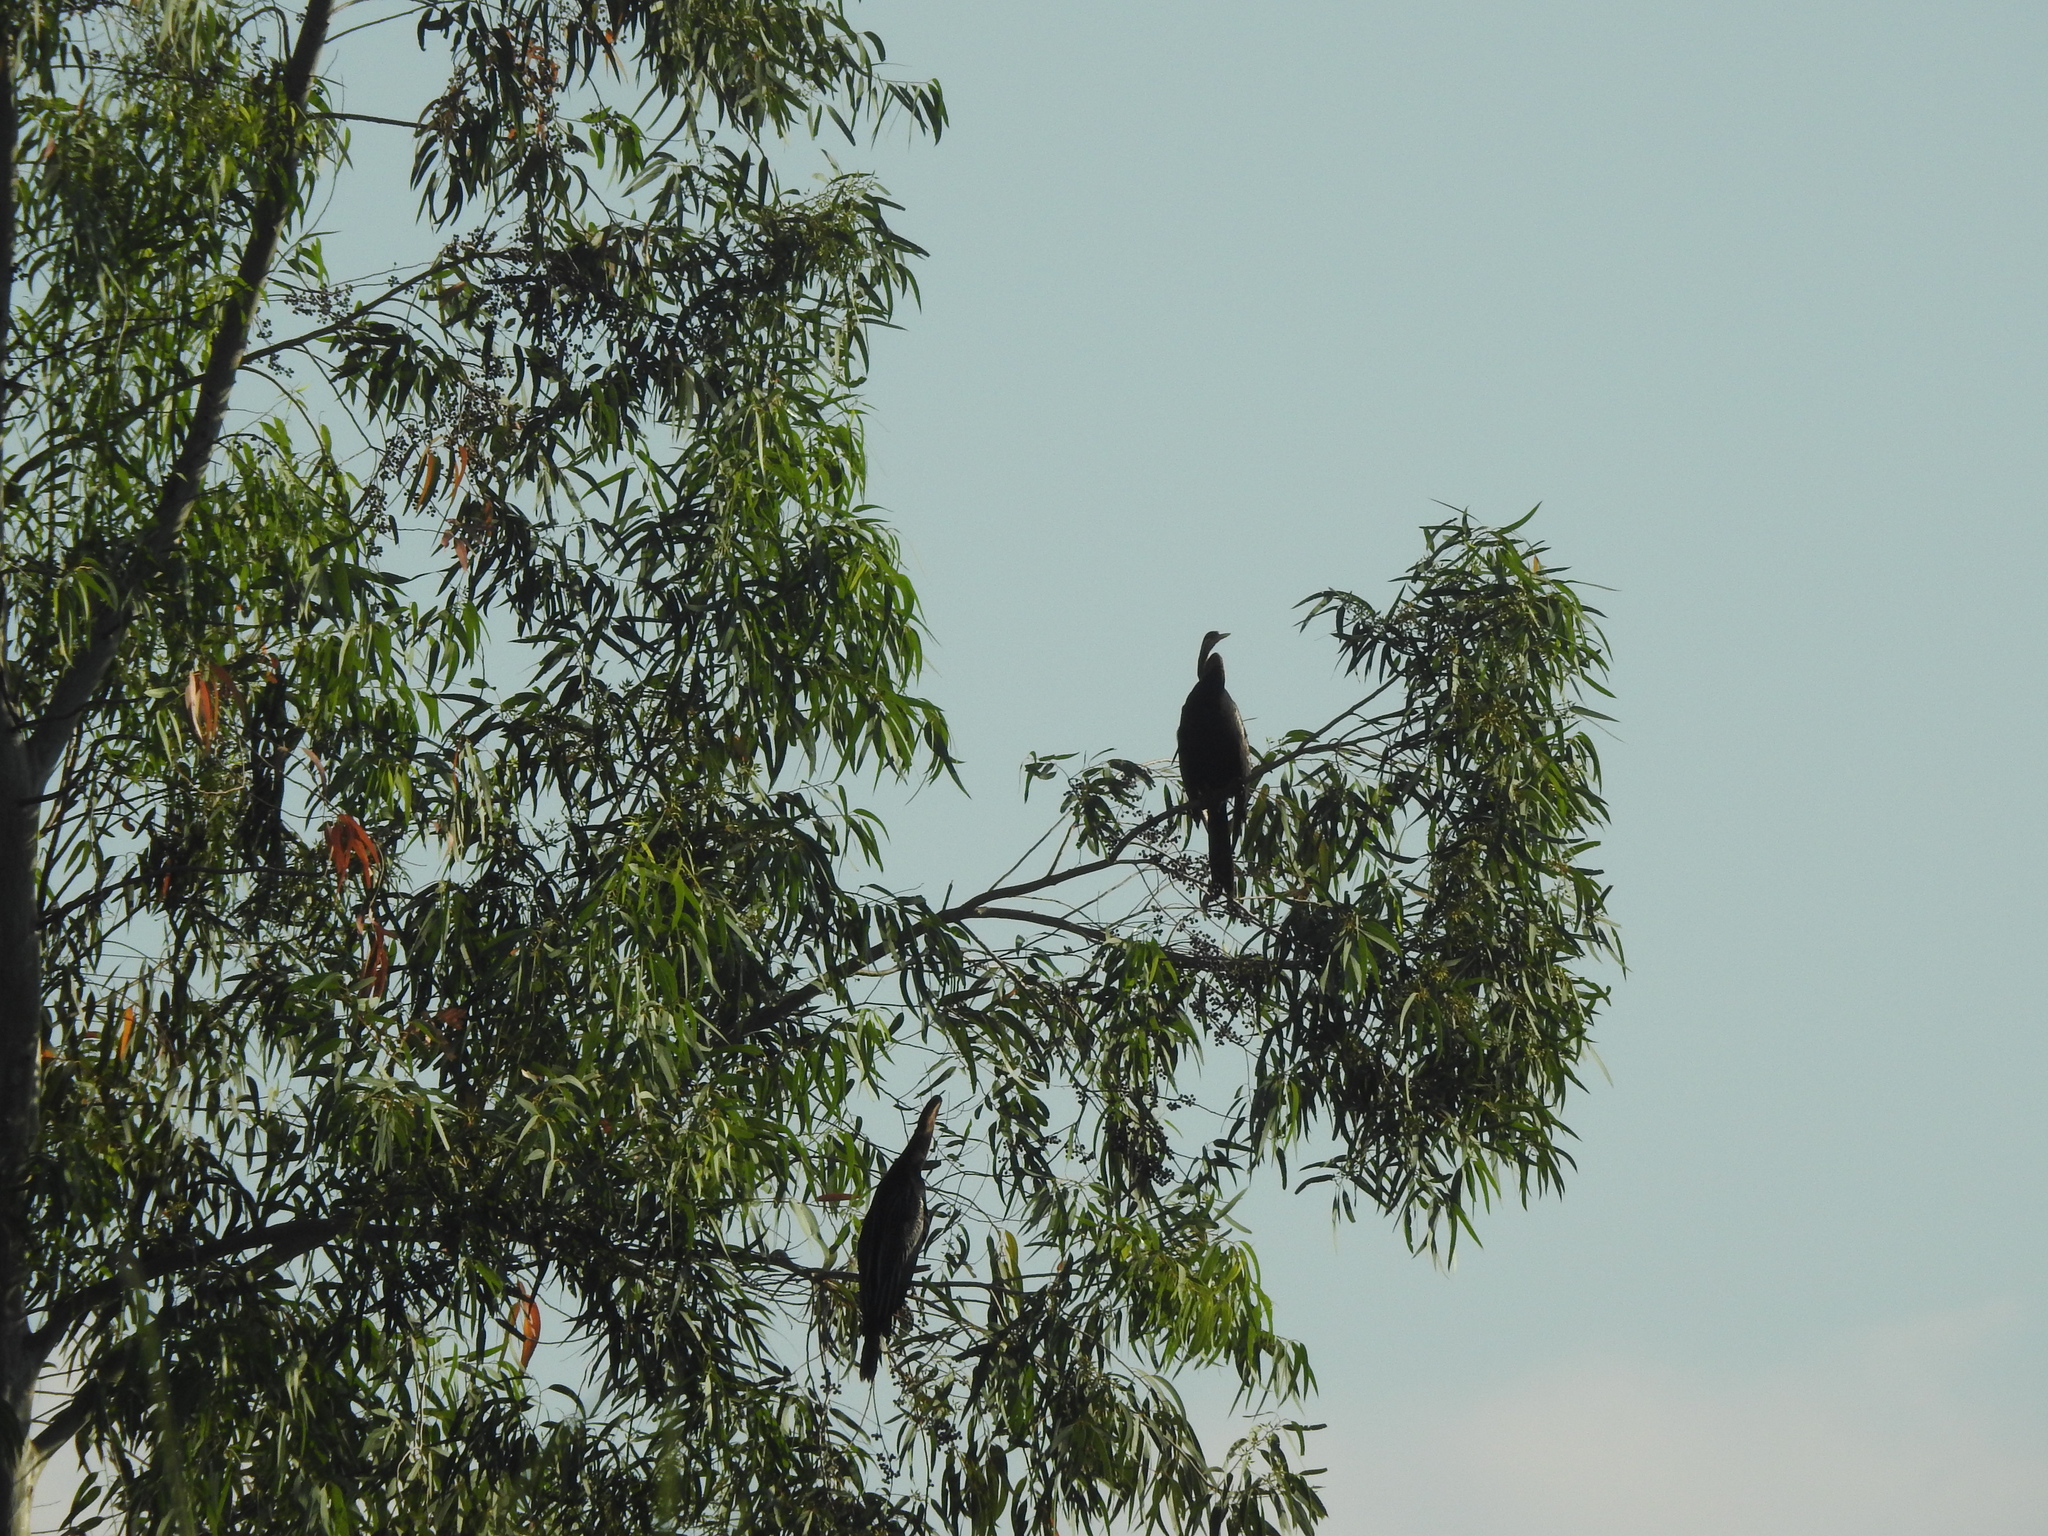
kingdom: Animalia
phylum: Chordata
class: Aves
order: Suliformes
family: Anhingidae
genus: Anhinga
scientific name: Anhinga melanogaster
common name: Oriental darter
